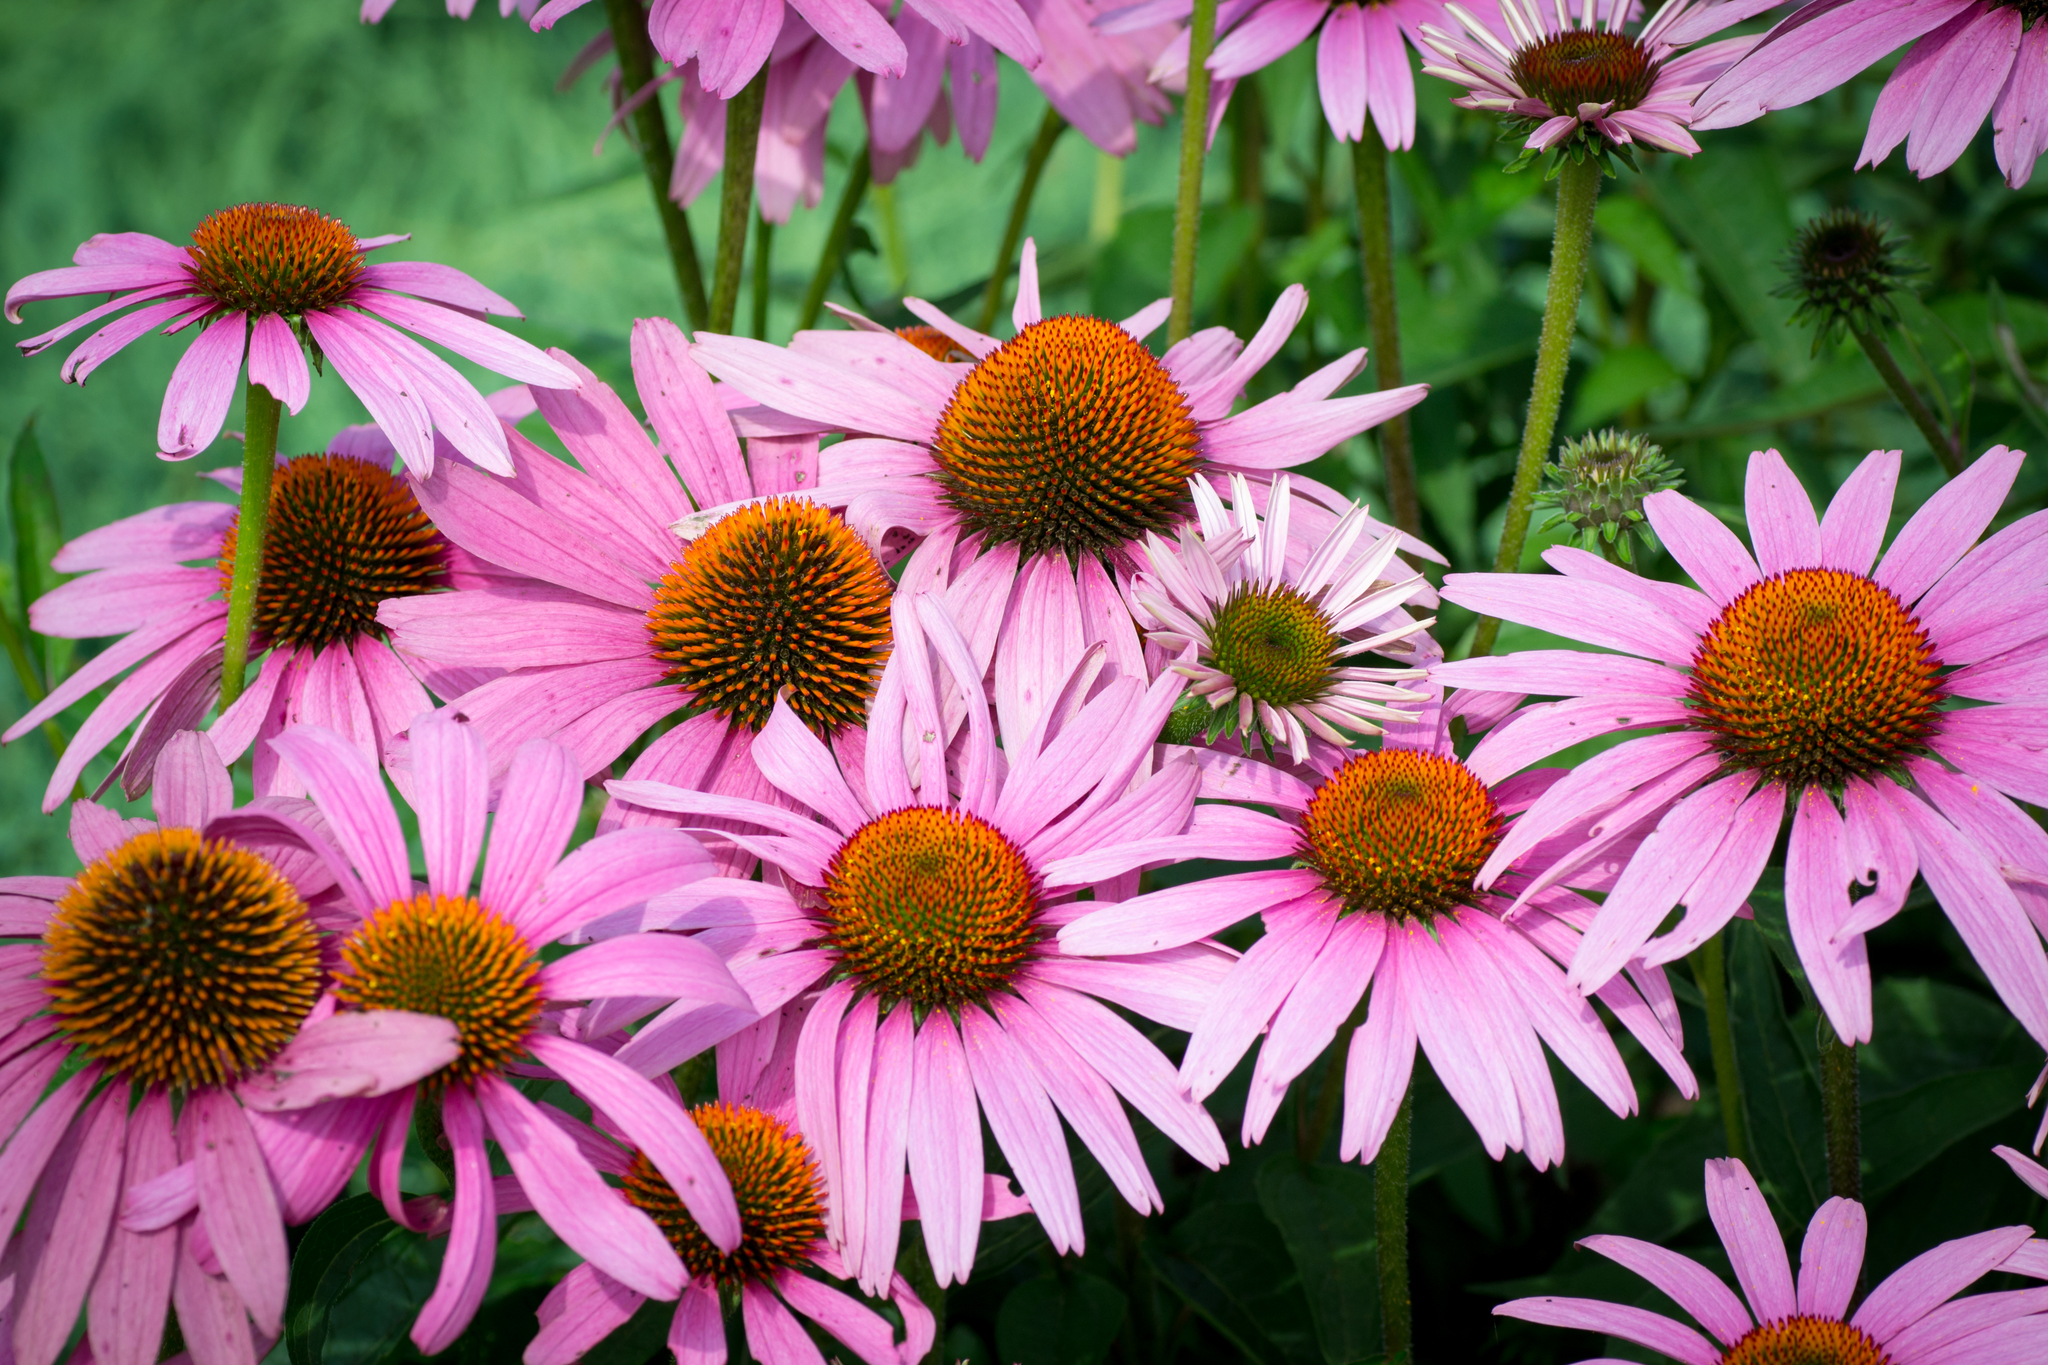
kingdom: Plantae
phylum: Tracheophyta
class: Magnoliopsida
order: Asterales
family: Asteraceae
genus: Echinacea
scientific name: Echinacea purpurea
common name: Broad-leaved purple coneflower
